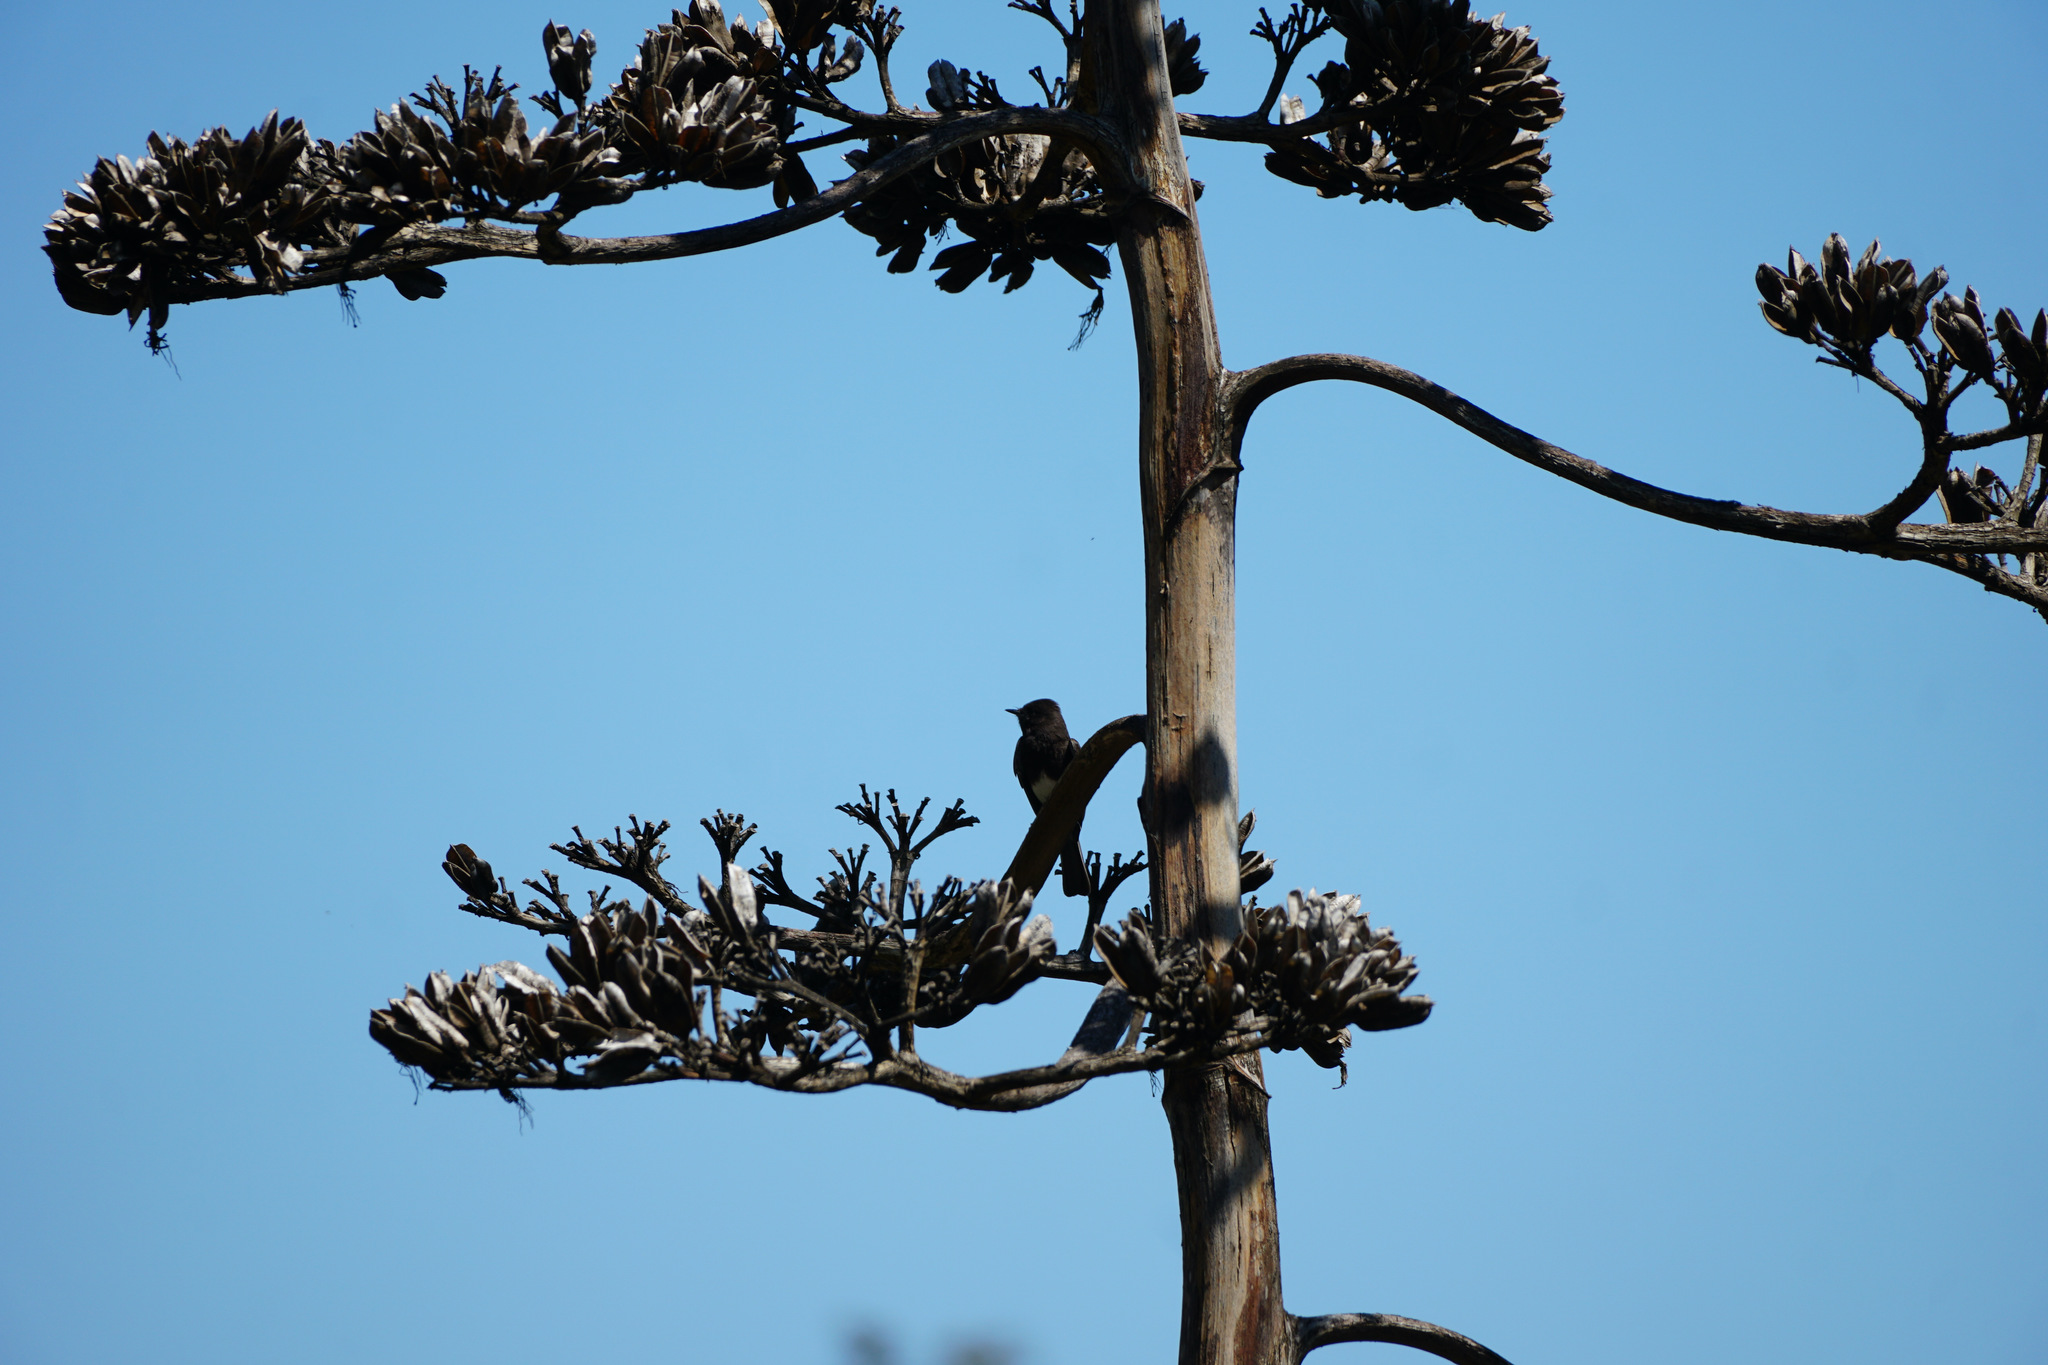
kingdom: Animalia
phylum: Chordata
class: Aves
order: Passeriformes
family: Tyrannidae
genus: Sayornis
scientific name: Sayornis nigricans
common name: Black phoebe
